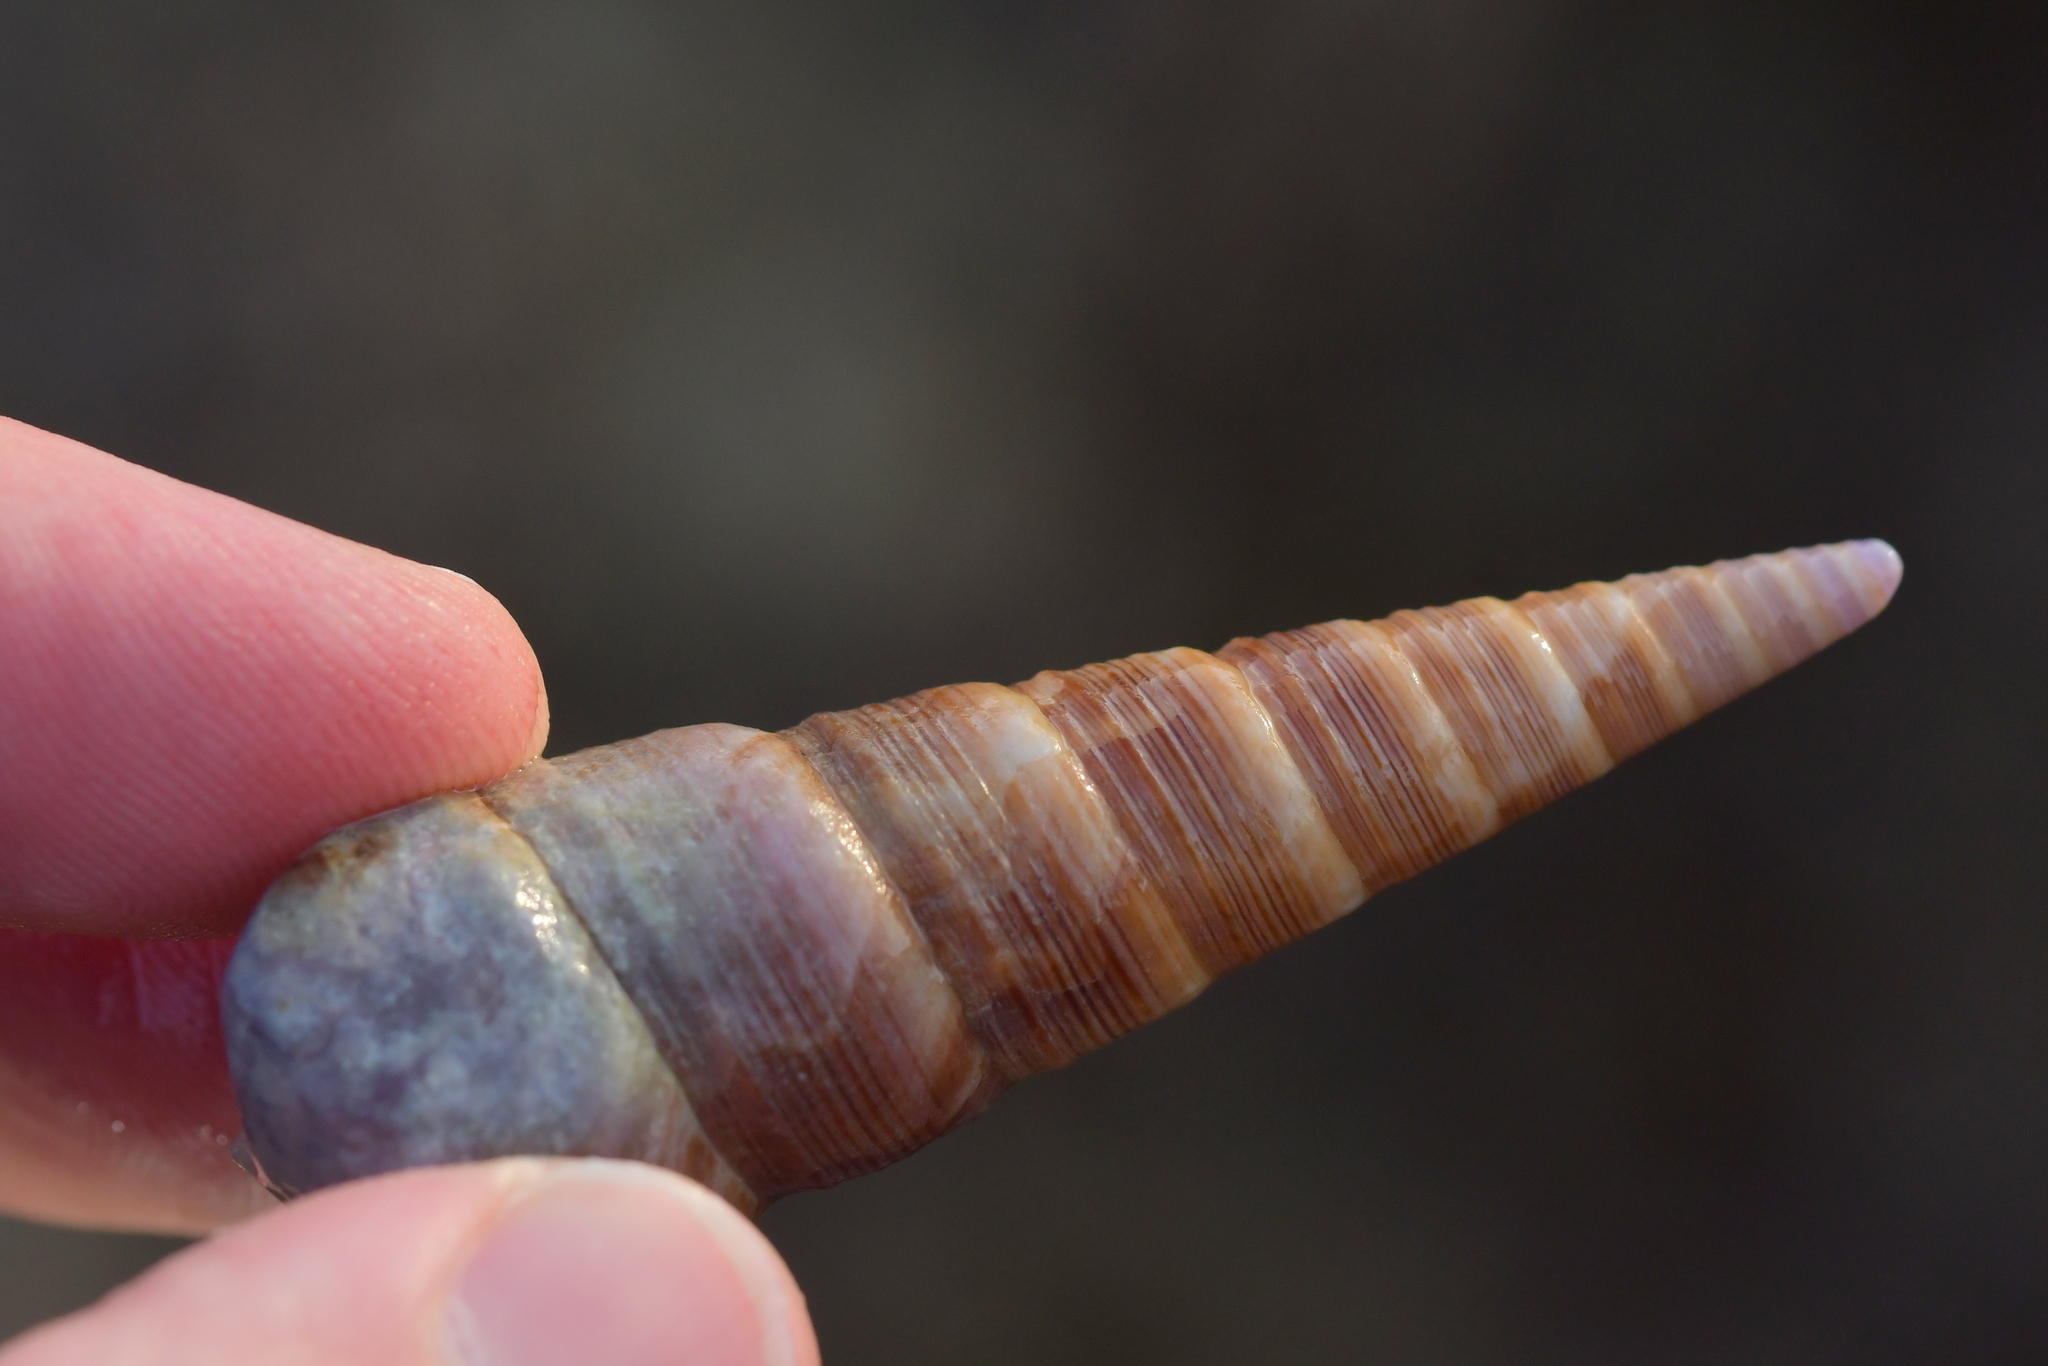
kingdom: Animalia
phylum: Mollusca
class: Gastropoda
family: Turritellidae
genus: Maoricolpus
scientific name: Maoricolpus roseus
